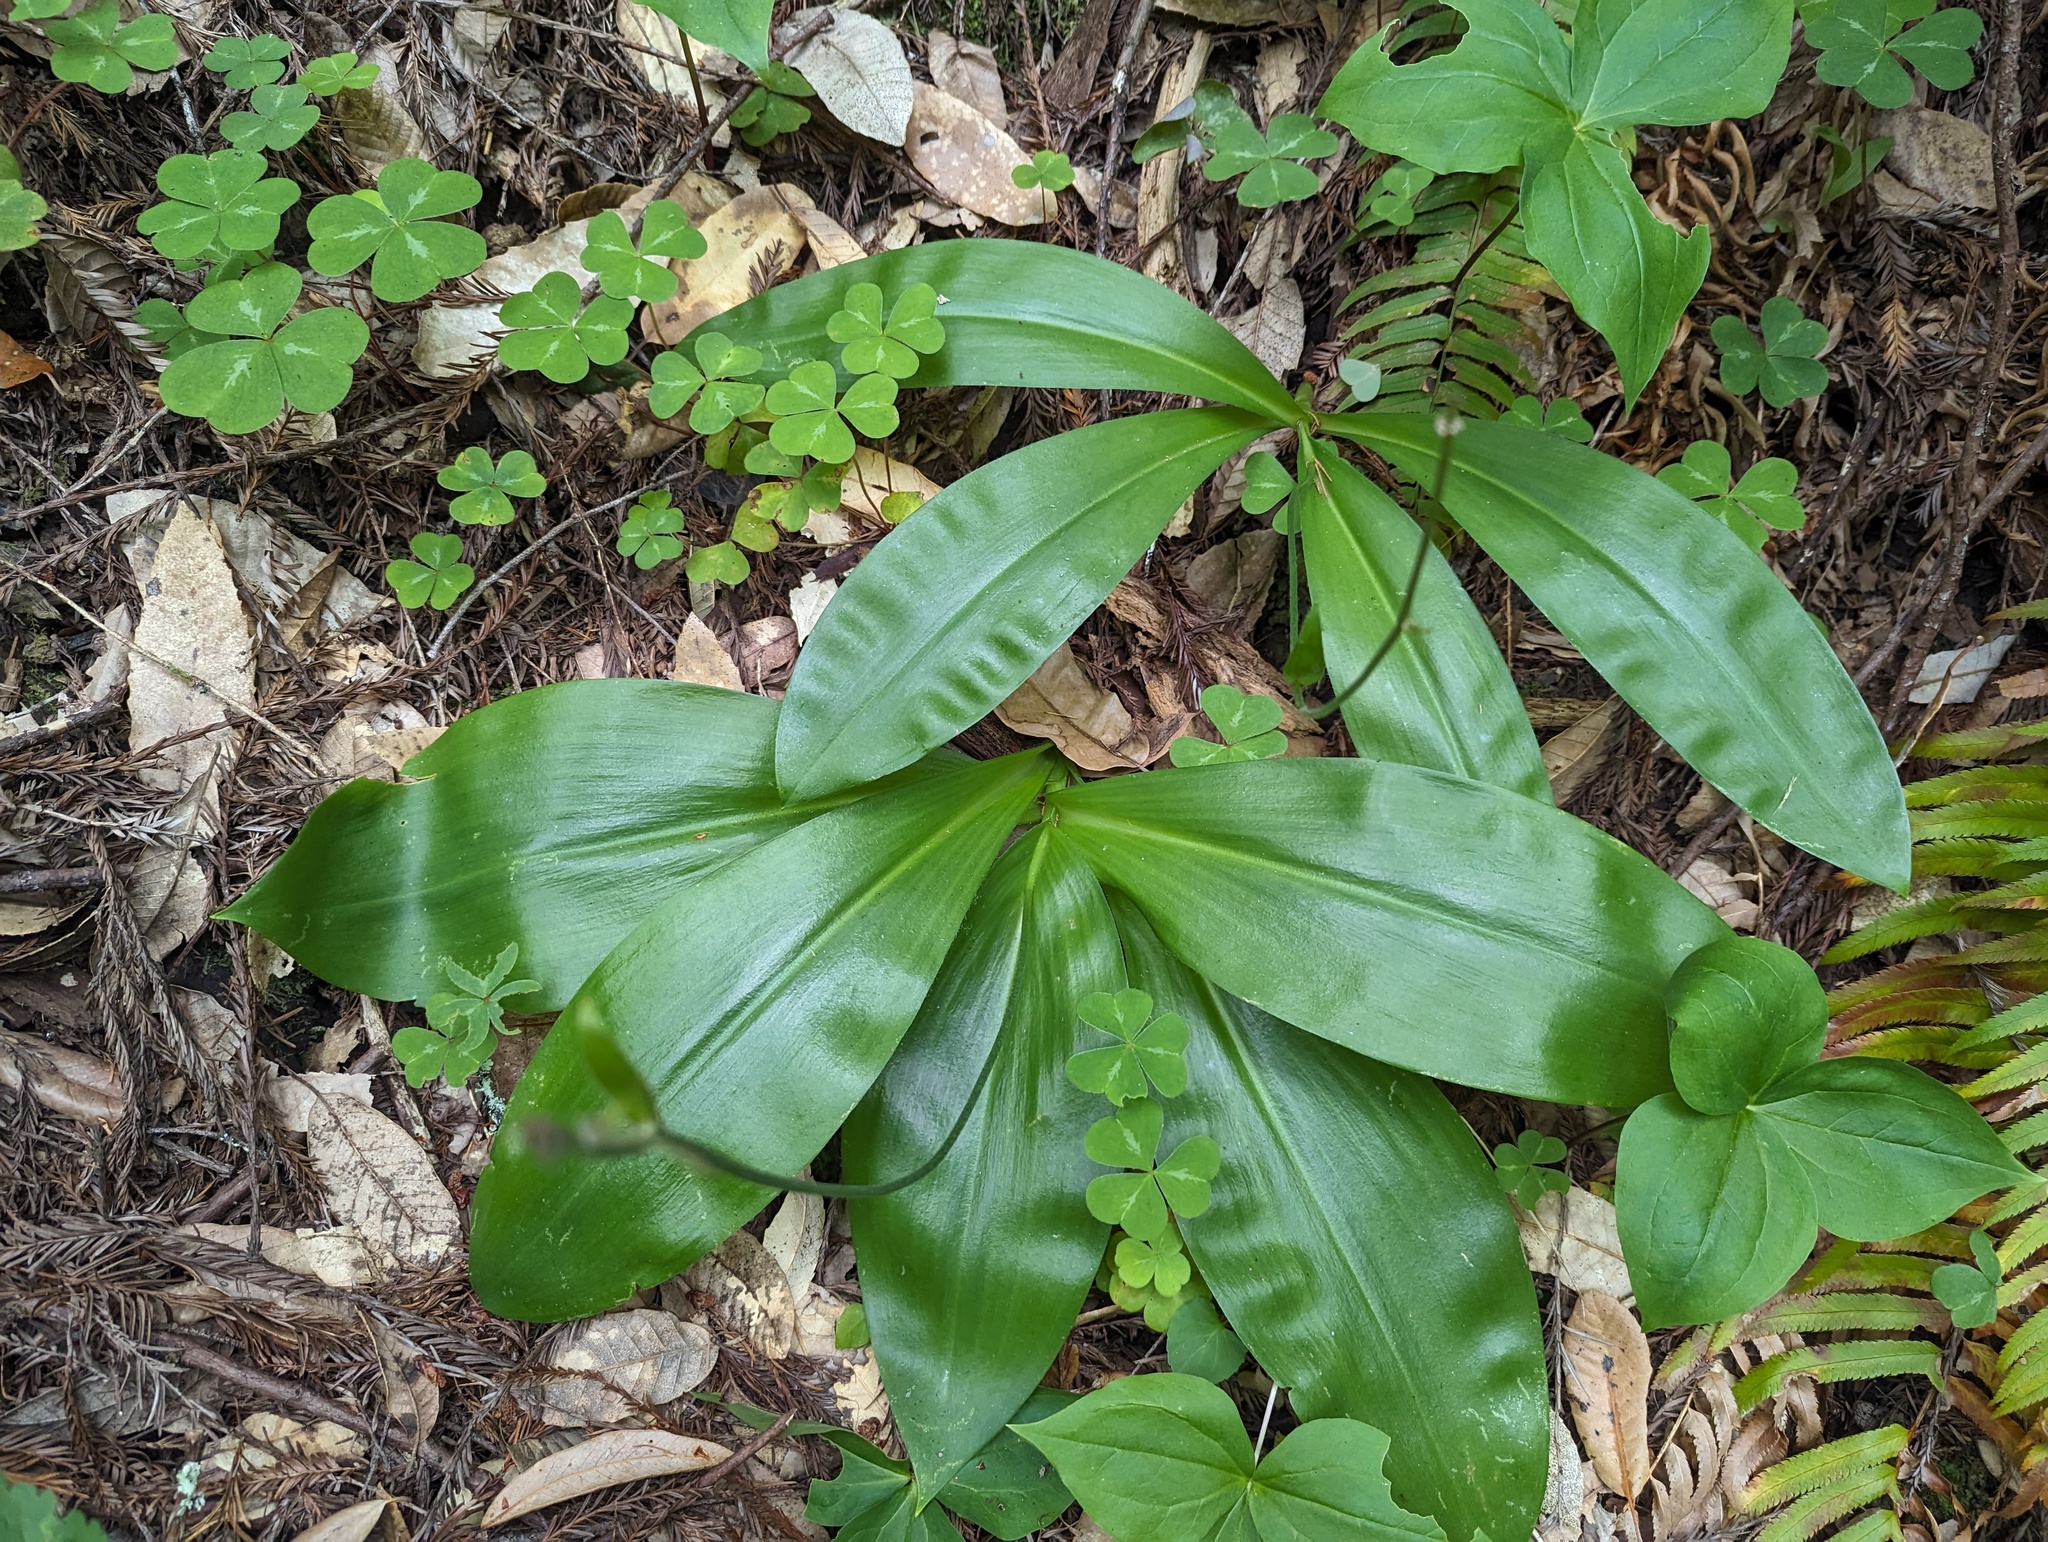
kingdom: Plantae
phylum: Tracheophyta
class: Liliopsida
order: Liliales
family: Liliaceae
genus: Clintonia
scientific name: Clintonia andrewsiana
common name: Red clintonia
